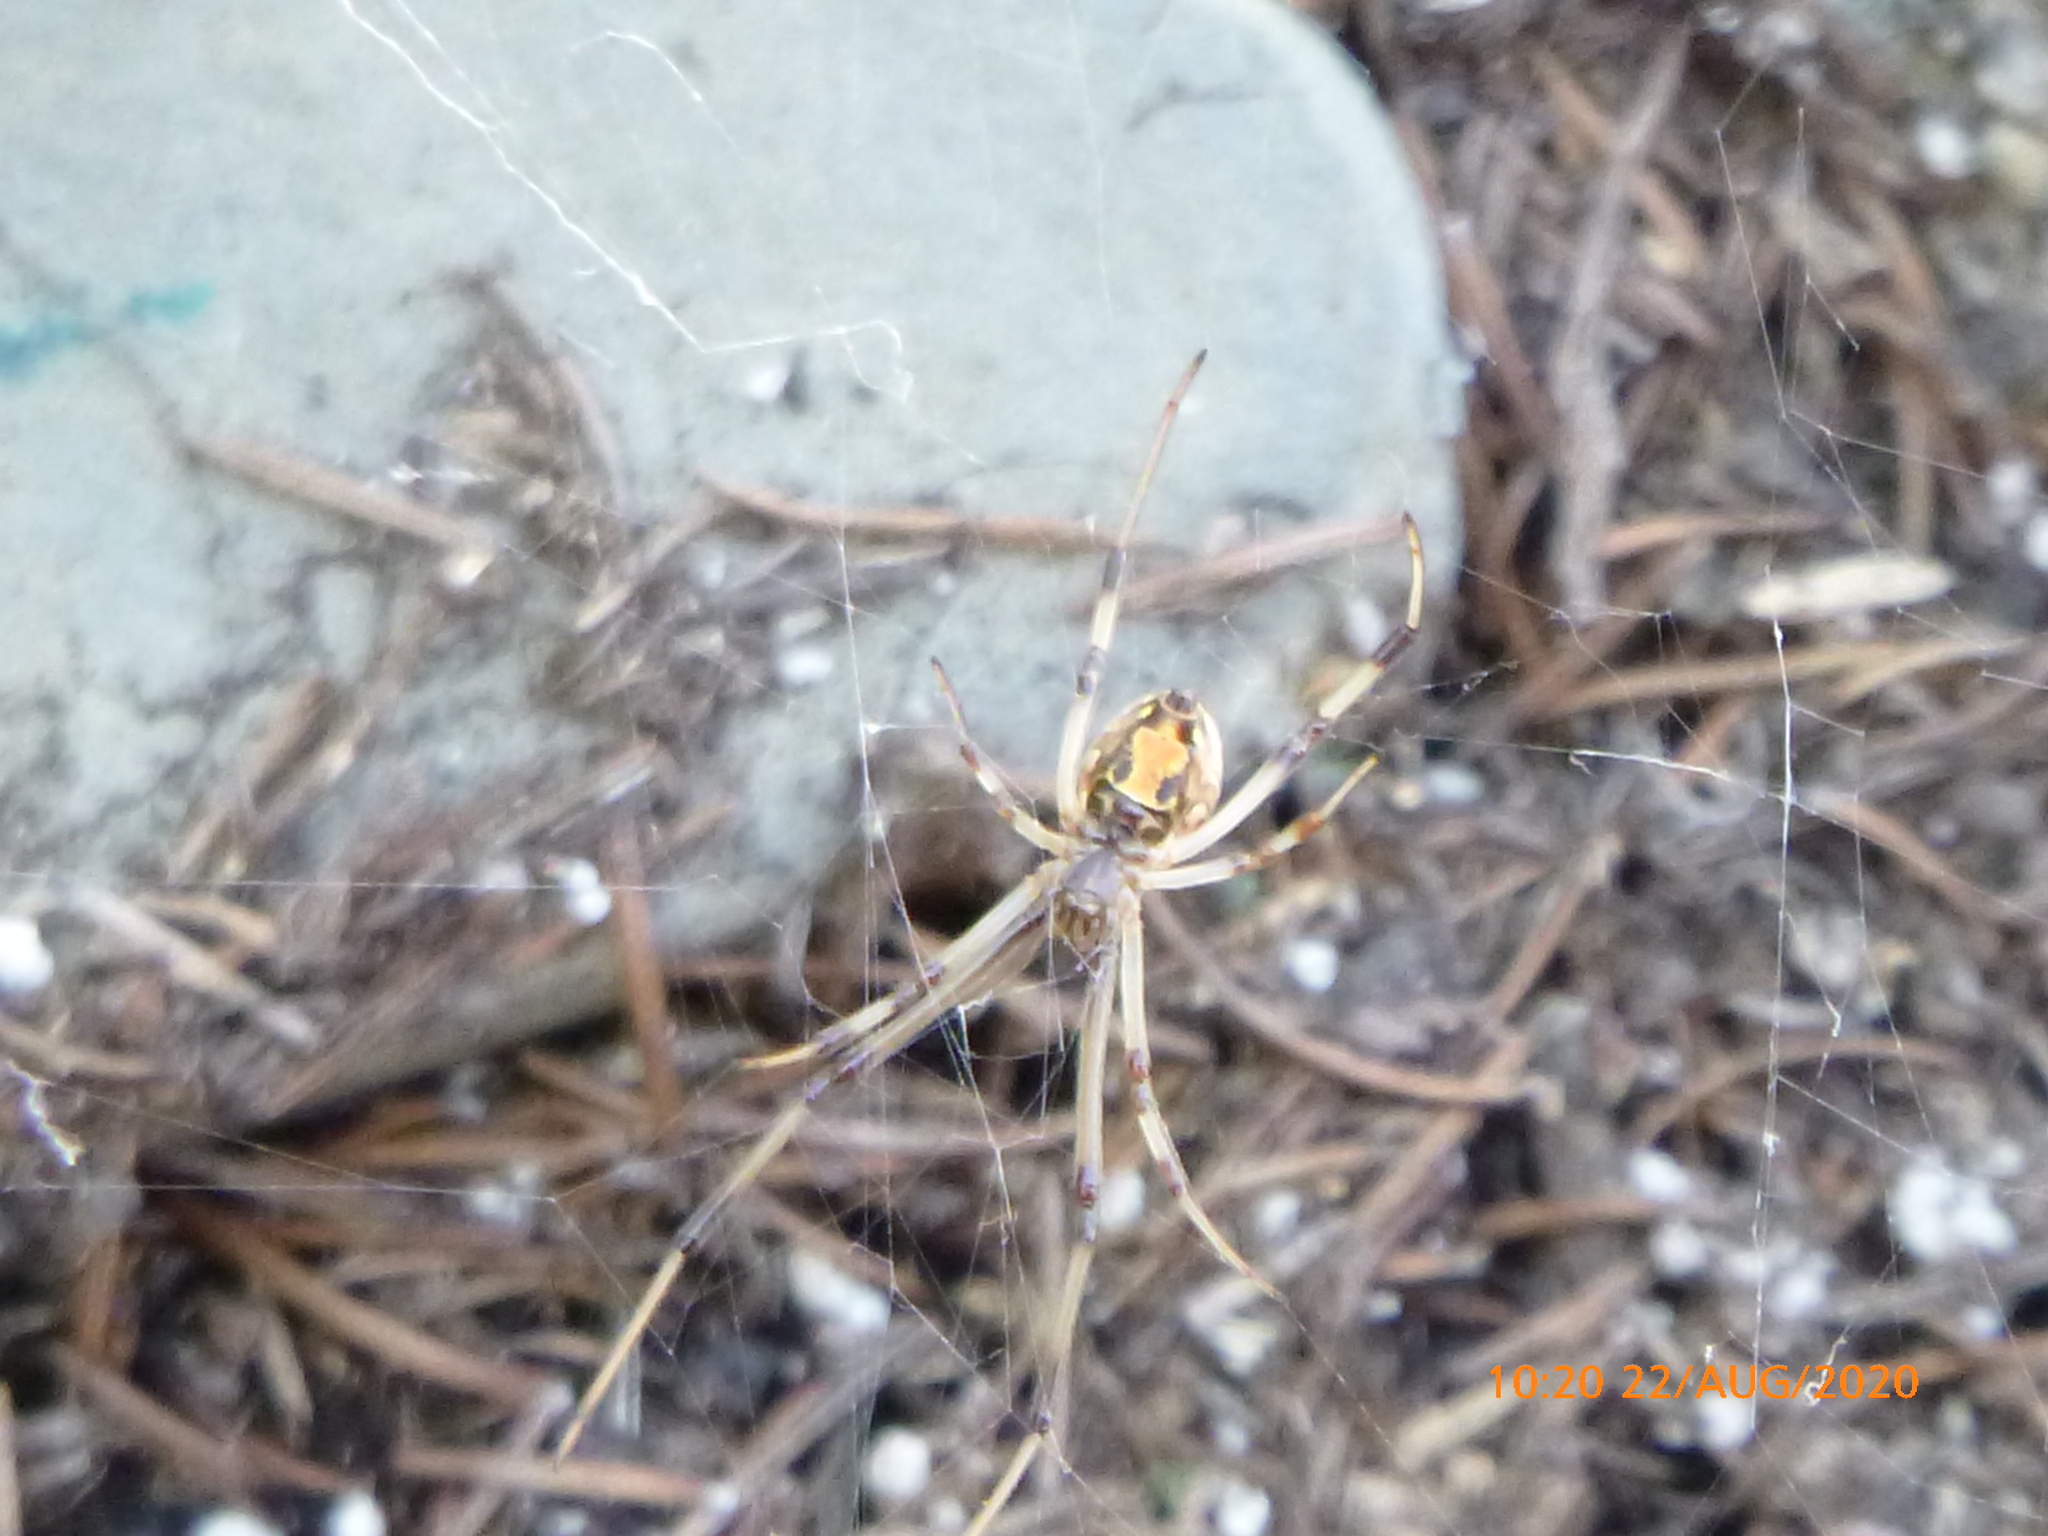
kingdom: Animalia
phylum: Arthropoda
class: Arachnida
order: Araneae
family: Theridiidae
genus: Latrodectus
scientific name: Latrodectus geometricus
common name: Brown widow spider
